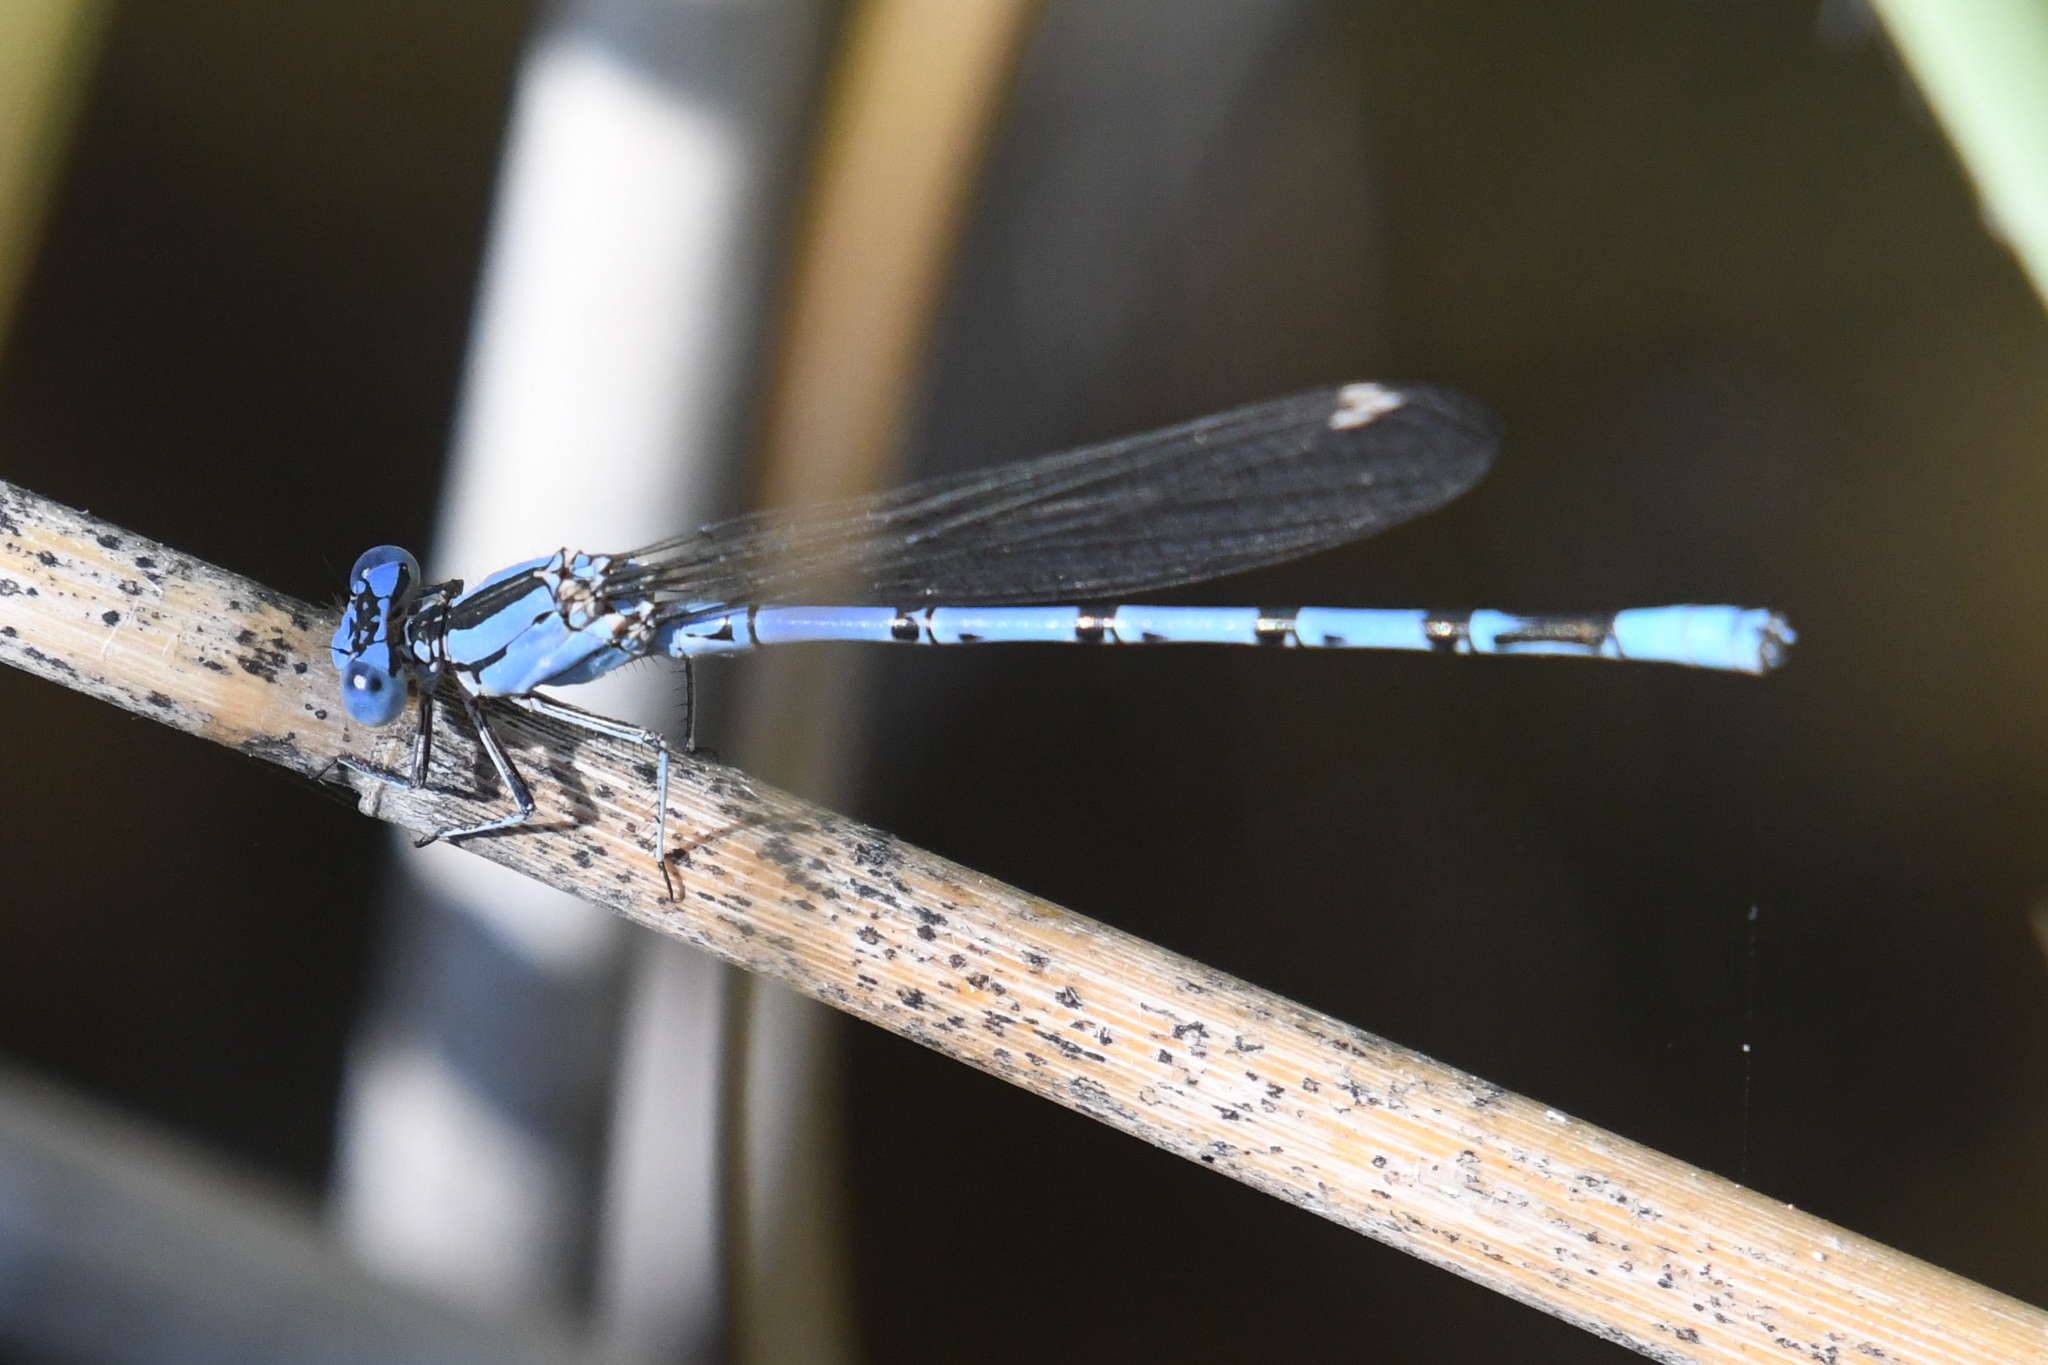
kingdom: Animalia
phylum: Arthropoda
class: Insecta
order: Odonata
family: Coenagrionidae
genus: Argia
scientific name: Argia vivida
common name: Vivid dancer
